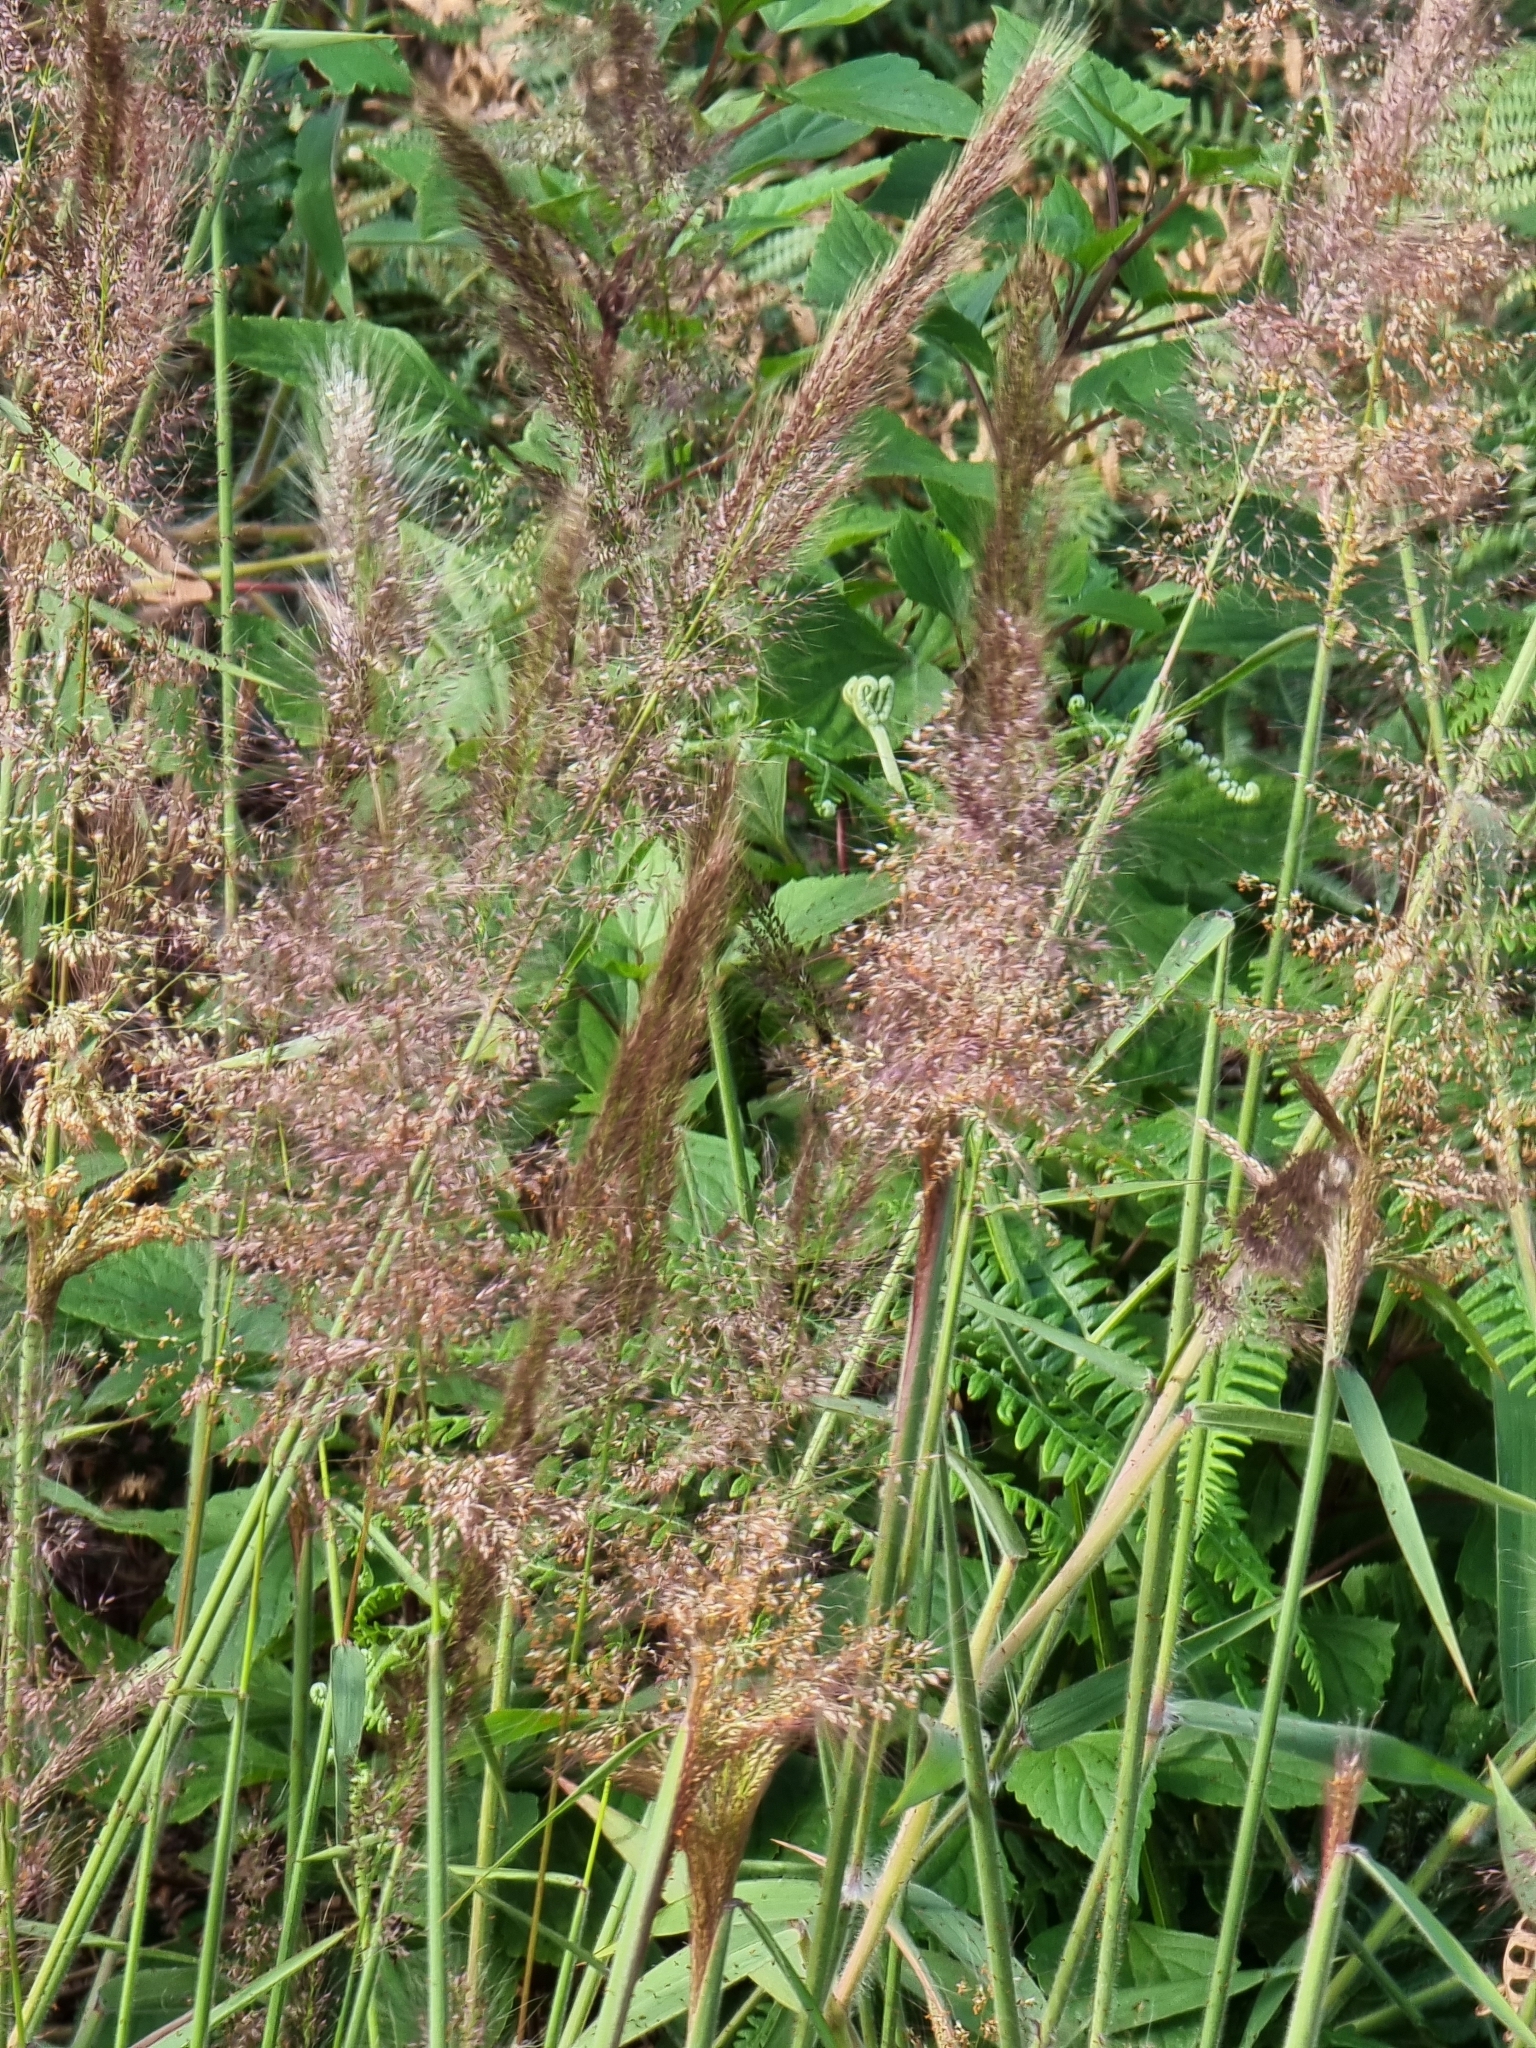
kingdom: Plantae
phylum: Tracheophyta
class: Liliopsida
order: Poales
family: Poaceae
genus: Melinis
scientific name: Melinis minutiflora
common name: Molassesgrass
